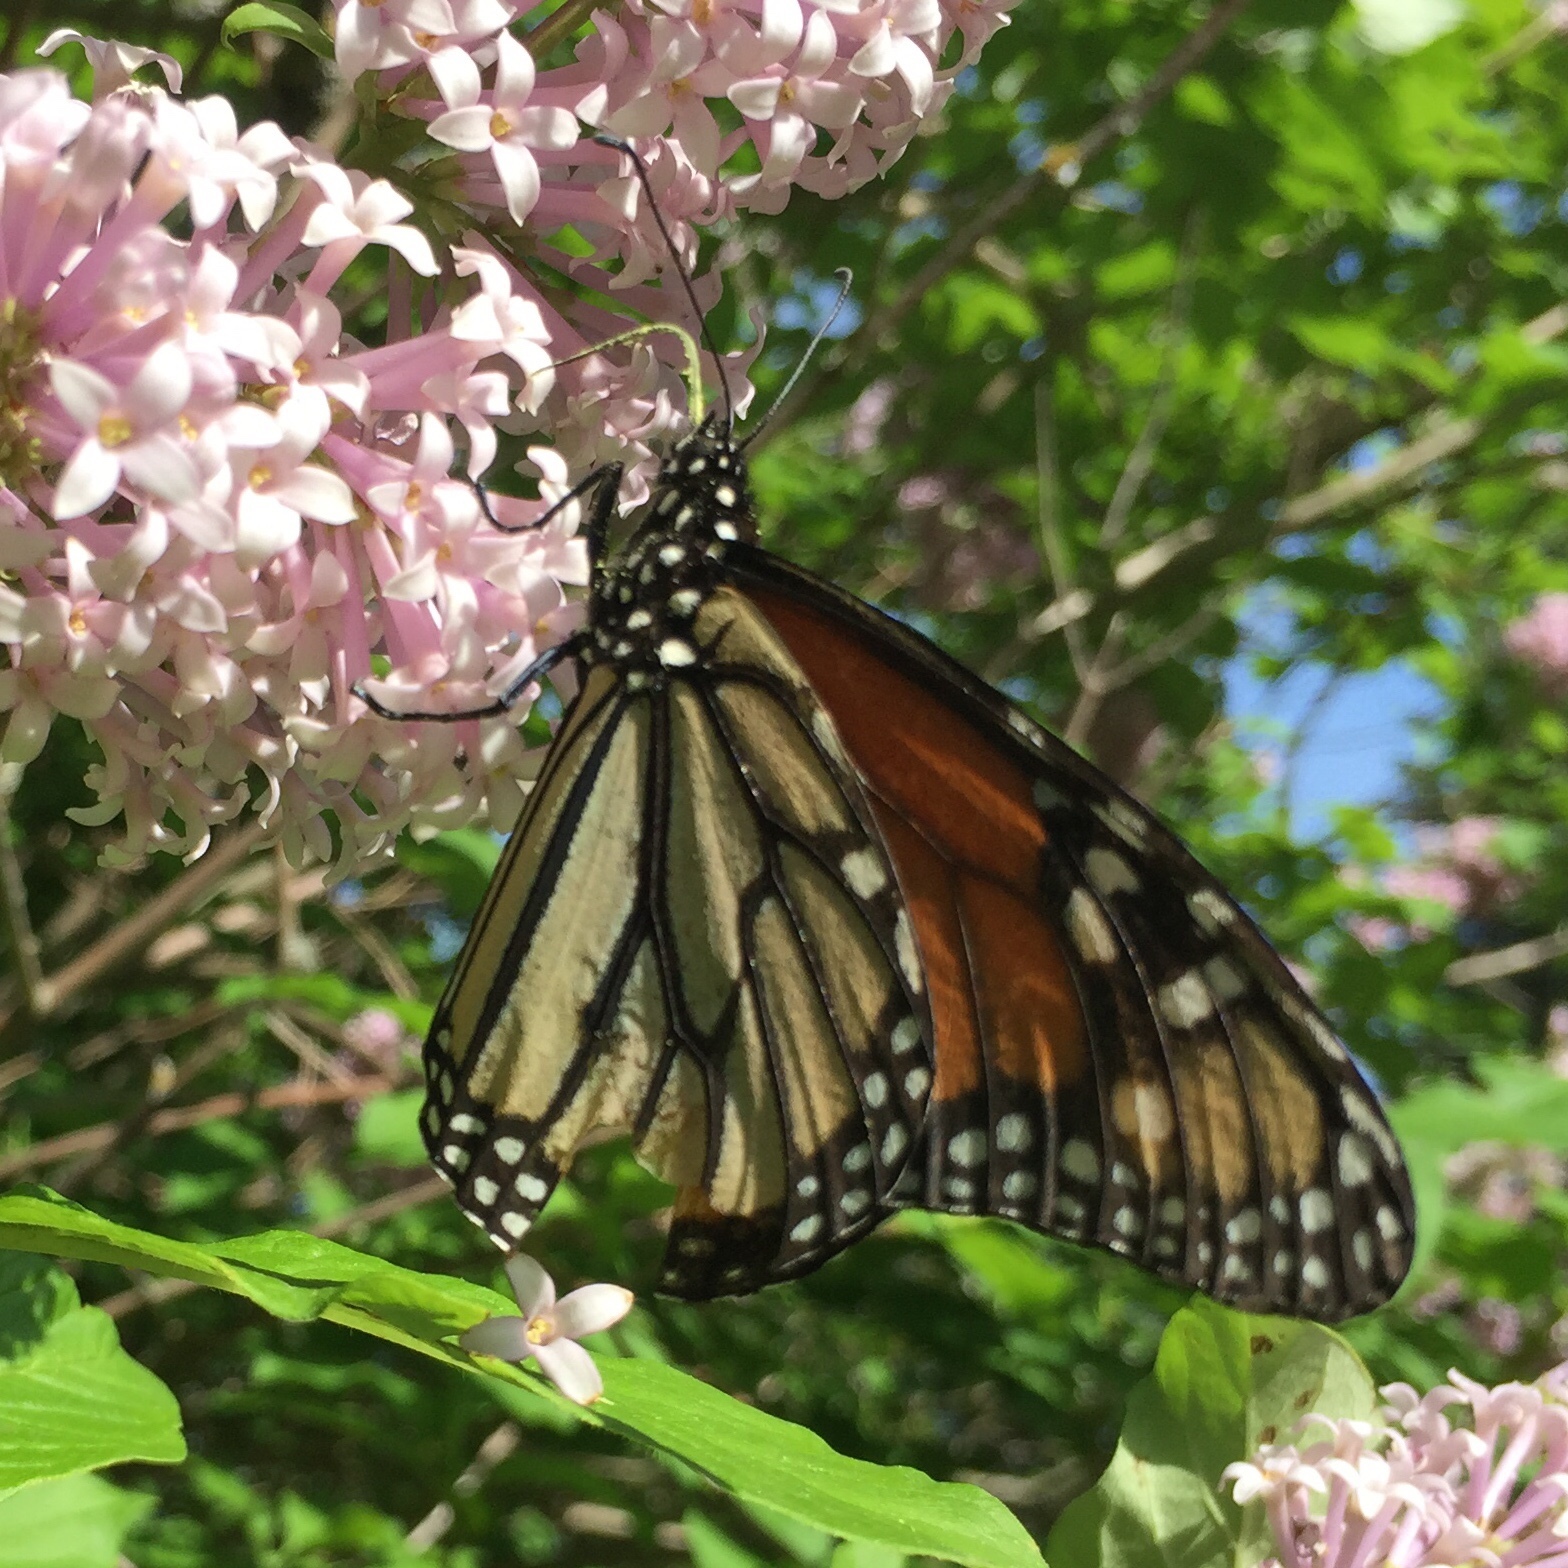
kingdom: Animalia
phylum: Arthropoda
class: Insecta
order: Lepidoptera
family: Nymphalidae
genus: Danaus
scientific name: Danaus plexippus
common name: Monarch
